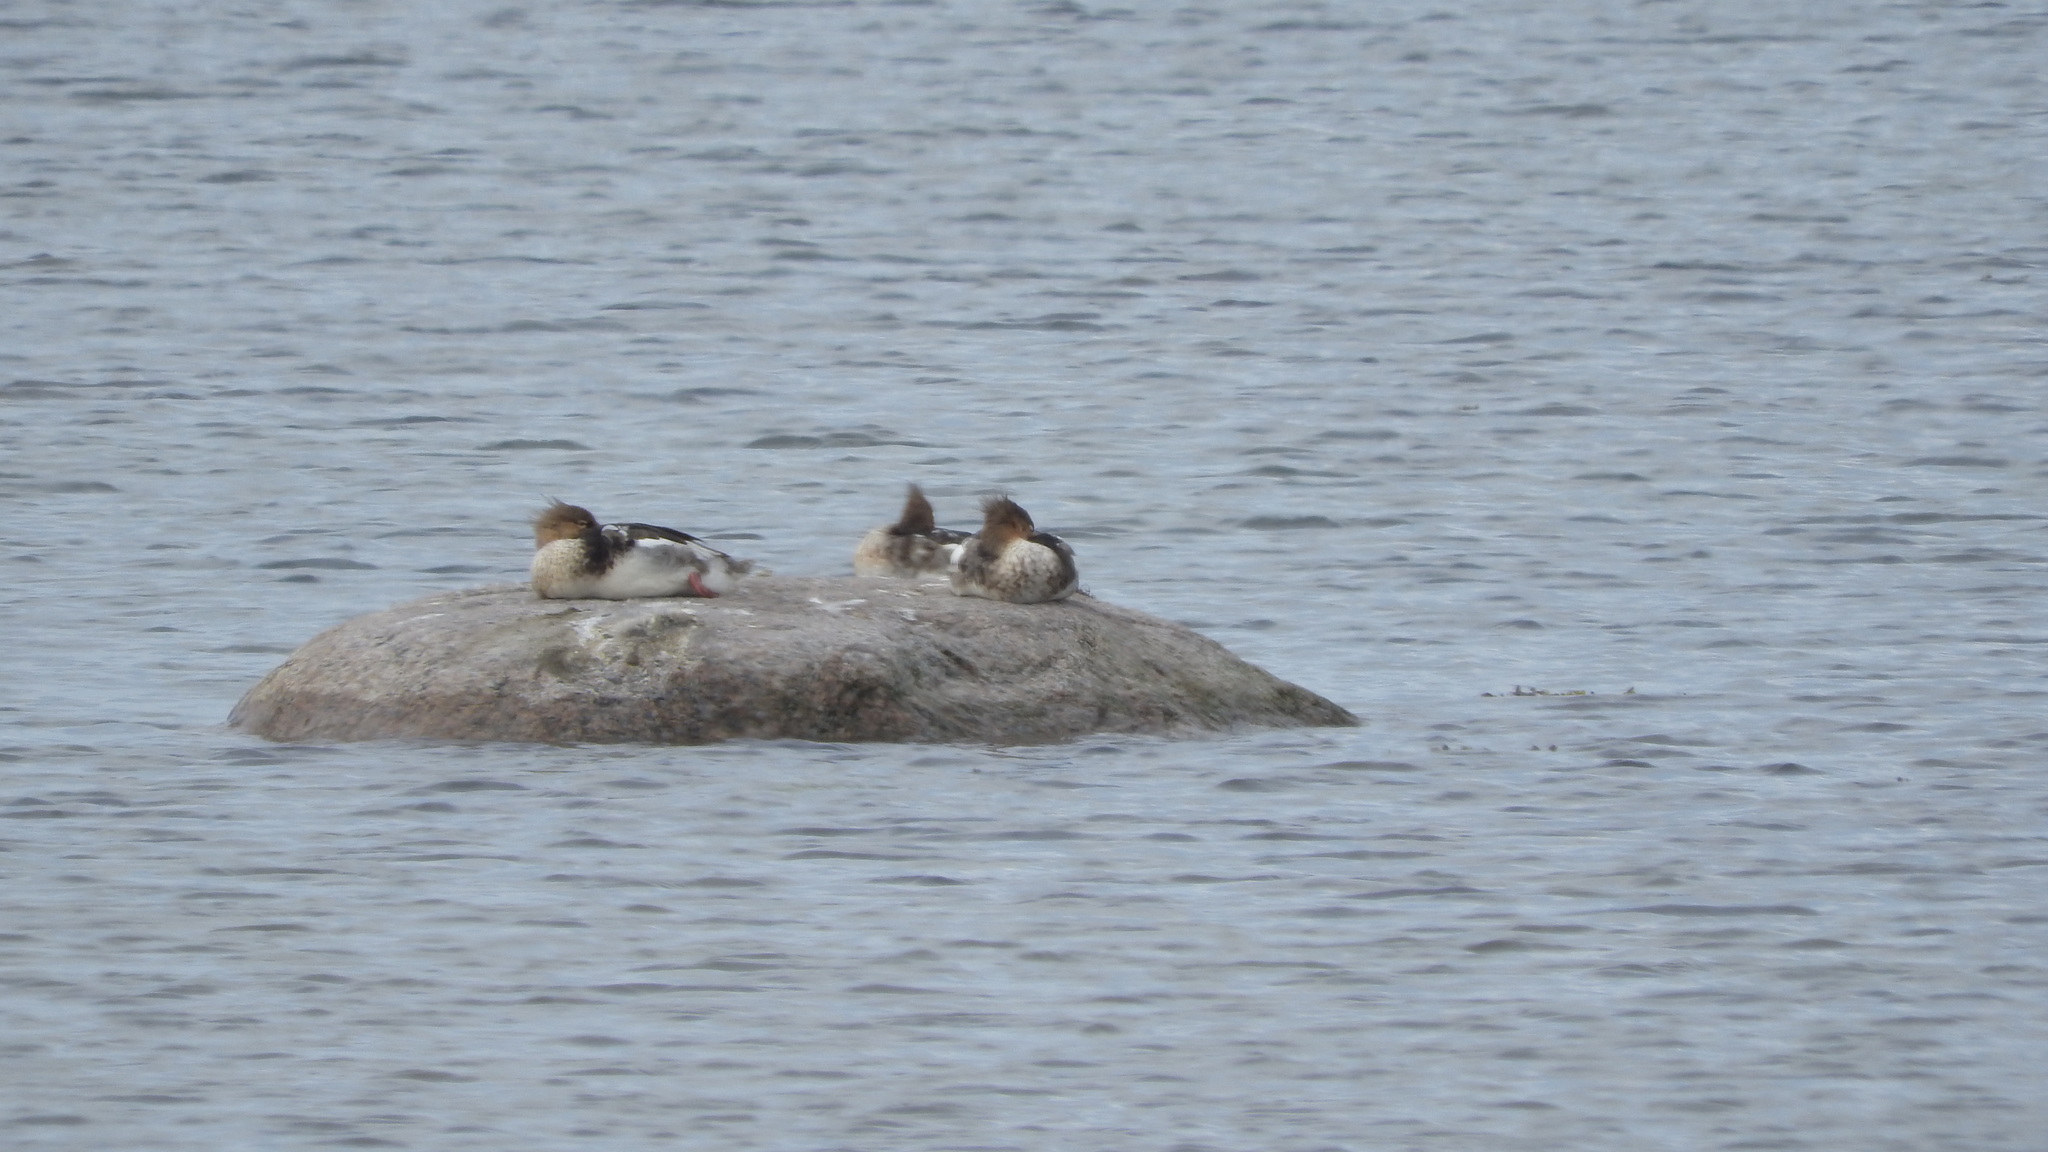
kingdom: Animalia
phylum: Chordata
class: Aves
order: Anseriformes
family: Anatidae
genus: Mergus
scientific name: Mergus serrator
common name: Red-breasted merganser
